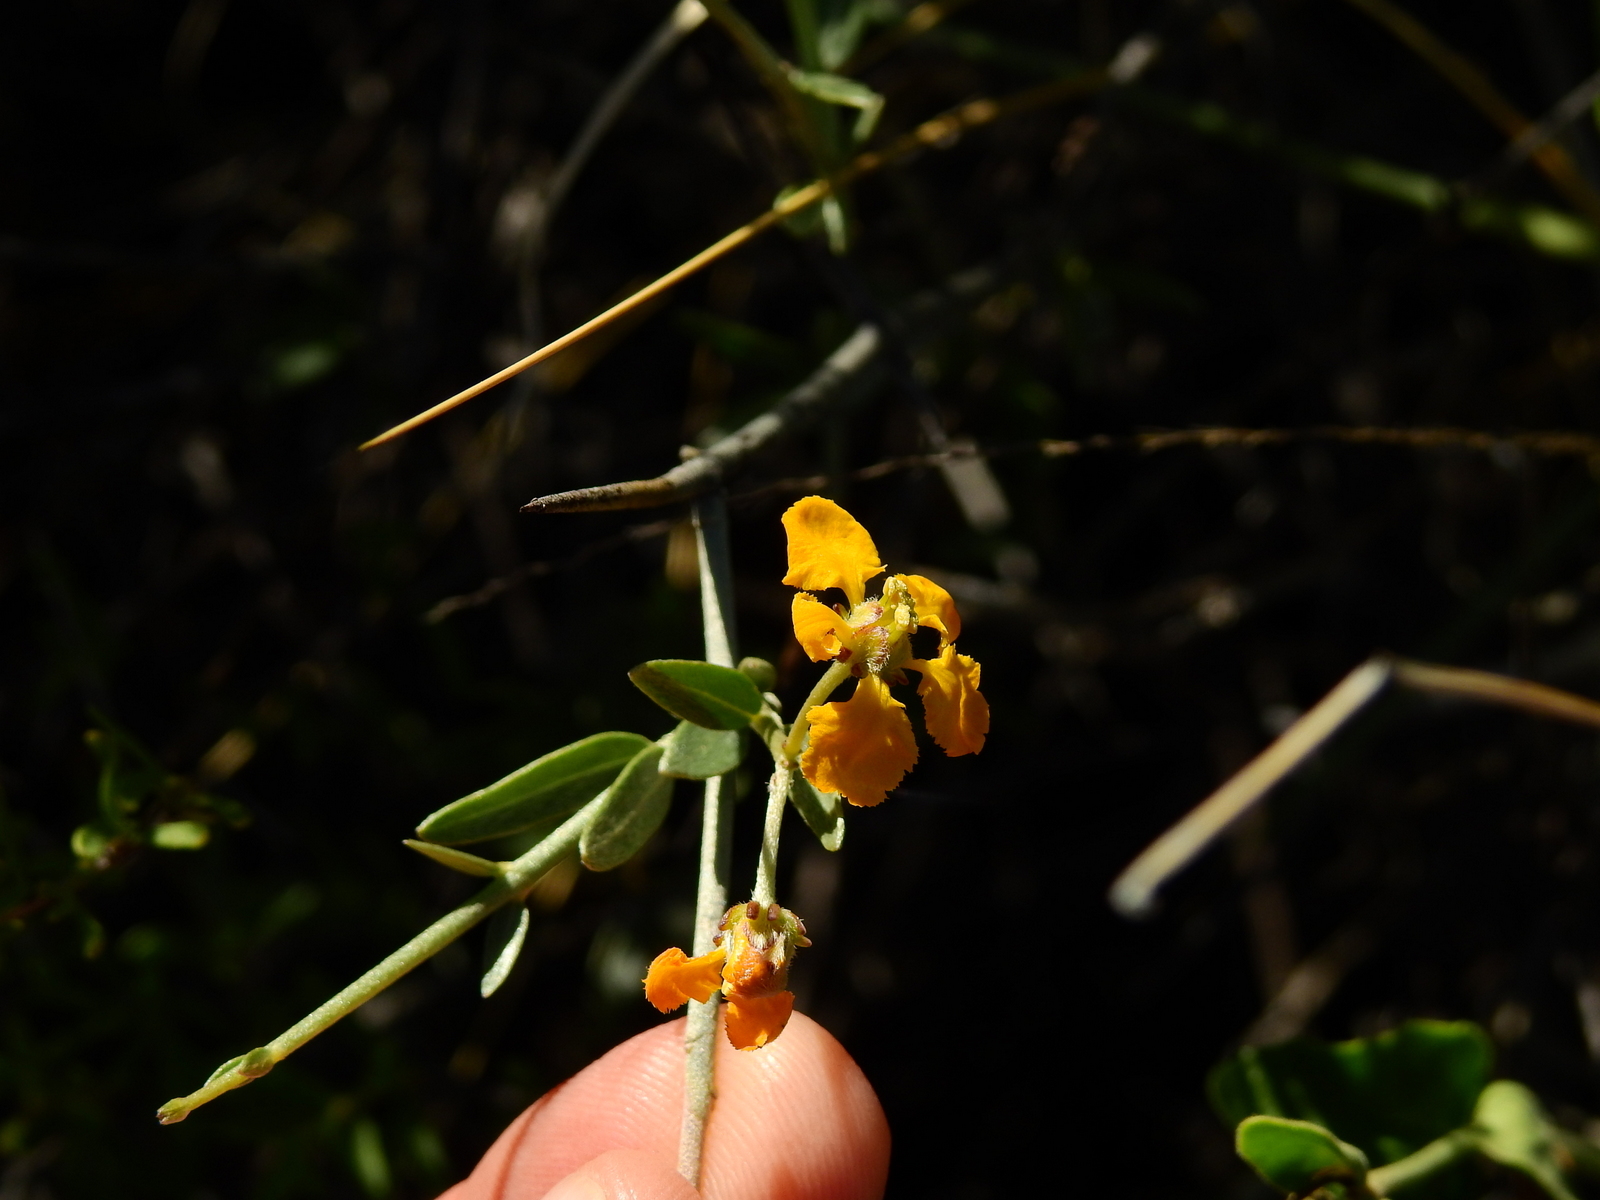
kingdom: Plantae
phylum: Tracheophyta
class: Magnoliopsida
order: Malpighiales
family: Malpighiaceae
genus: Tricomaria
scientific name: Tricomaria usillo
